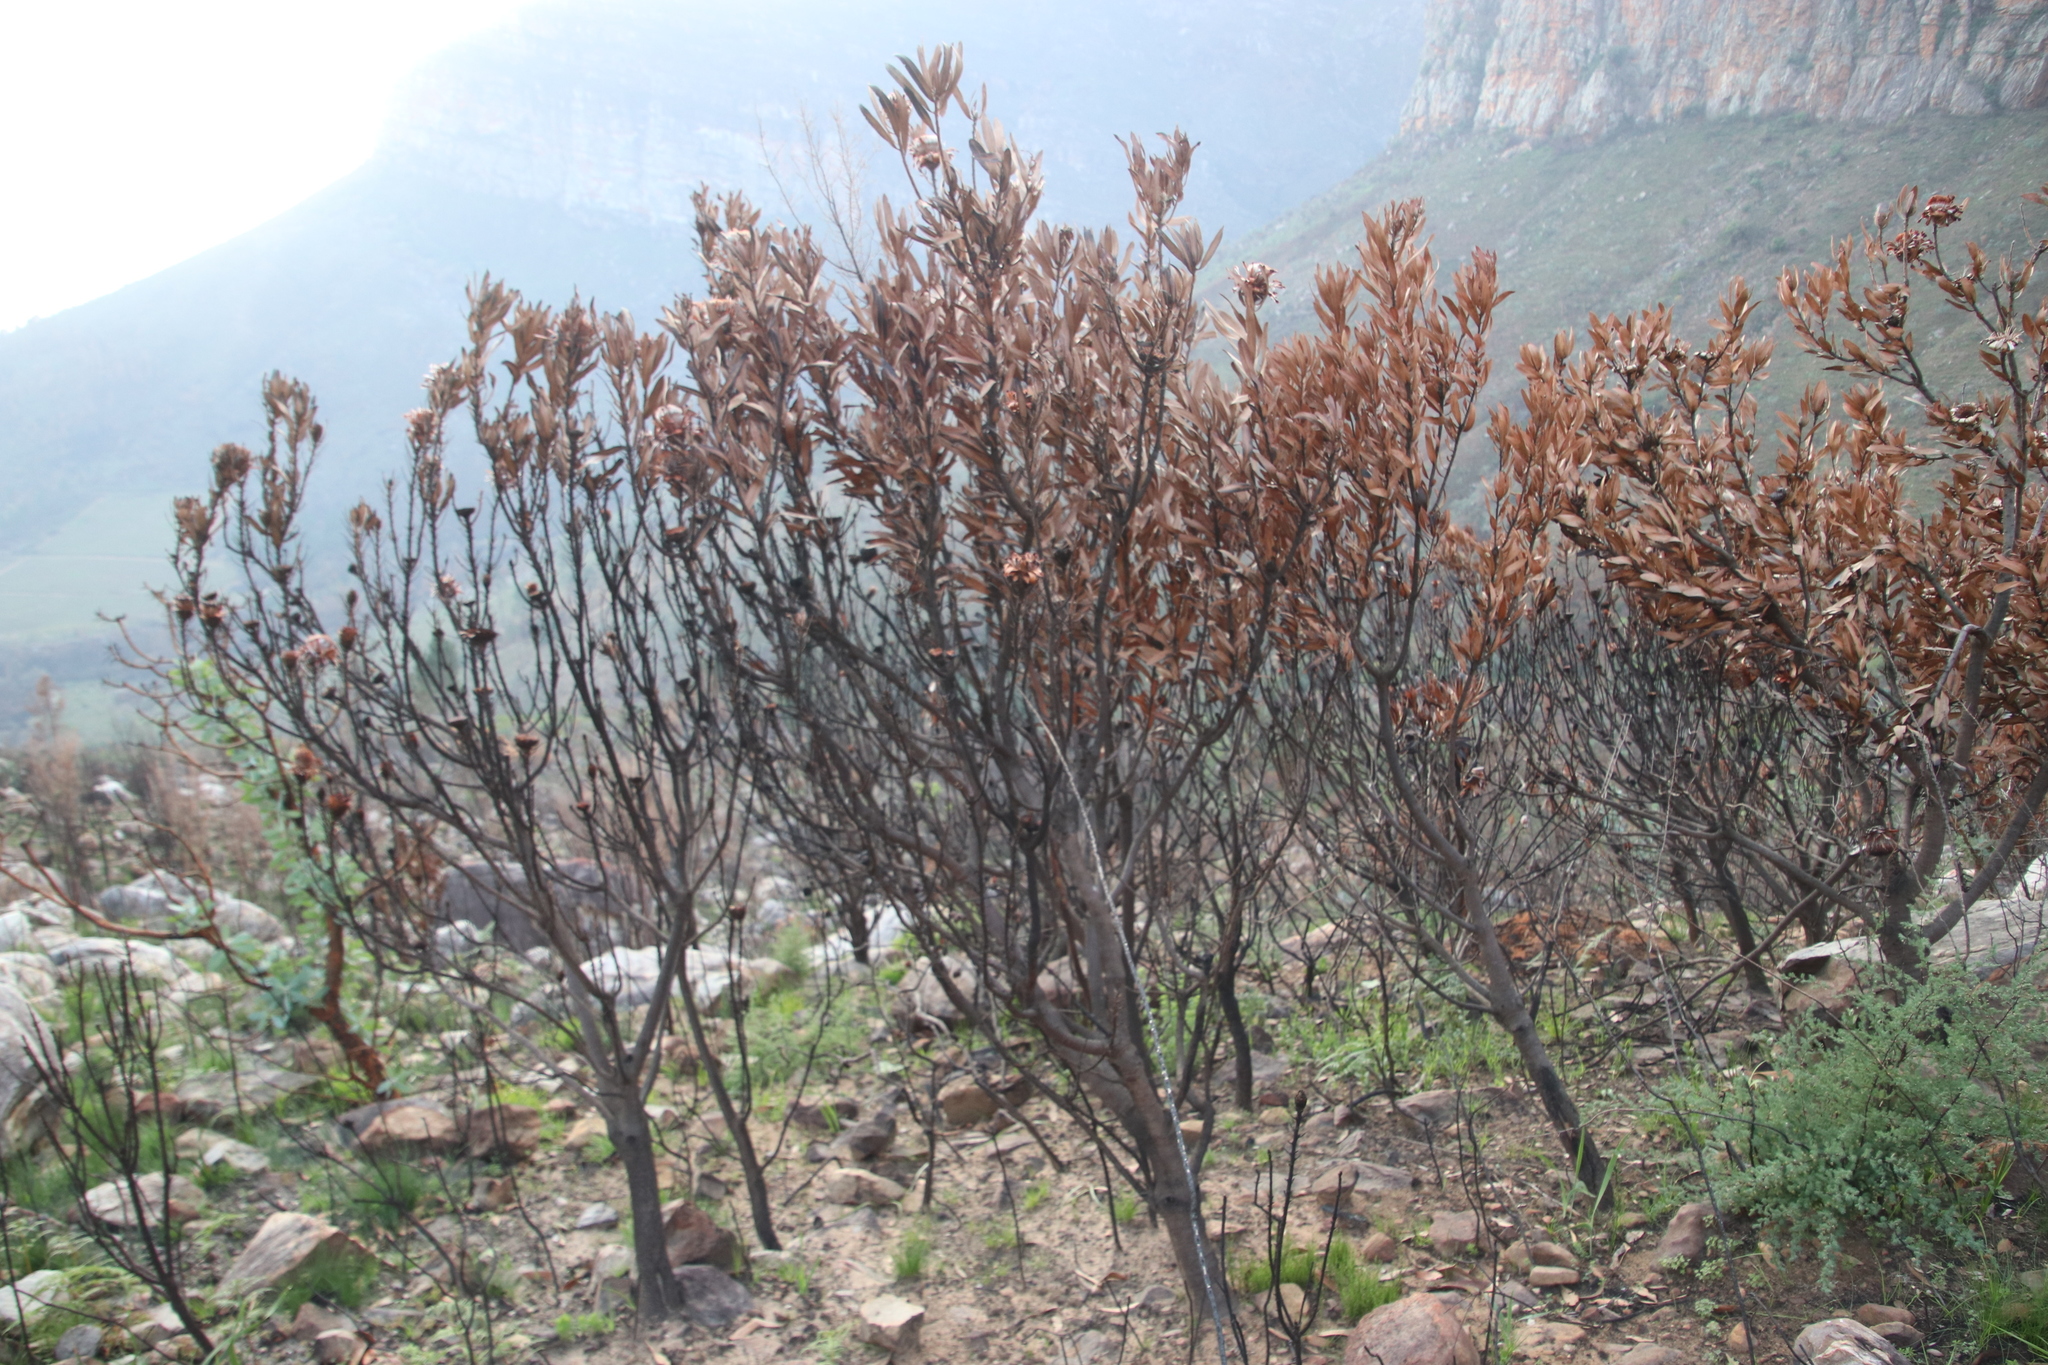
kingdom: Plantae
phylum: Tracheophyta
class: Magnoliopsida
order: Proteales
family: Proteaceae
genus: Protea
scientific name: Protea laurifolia
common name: Grey-leaf sugarbsh
